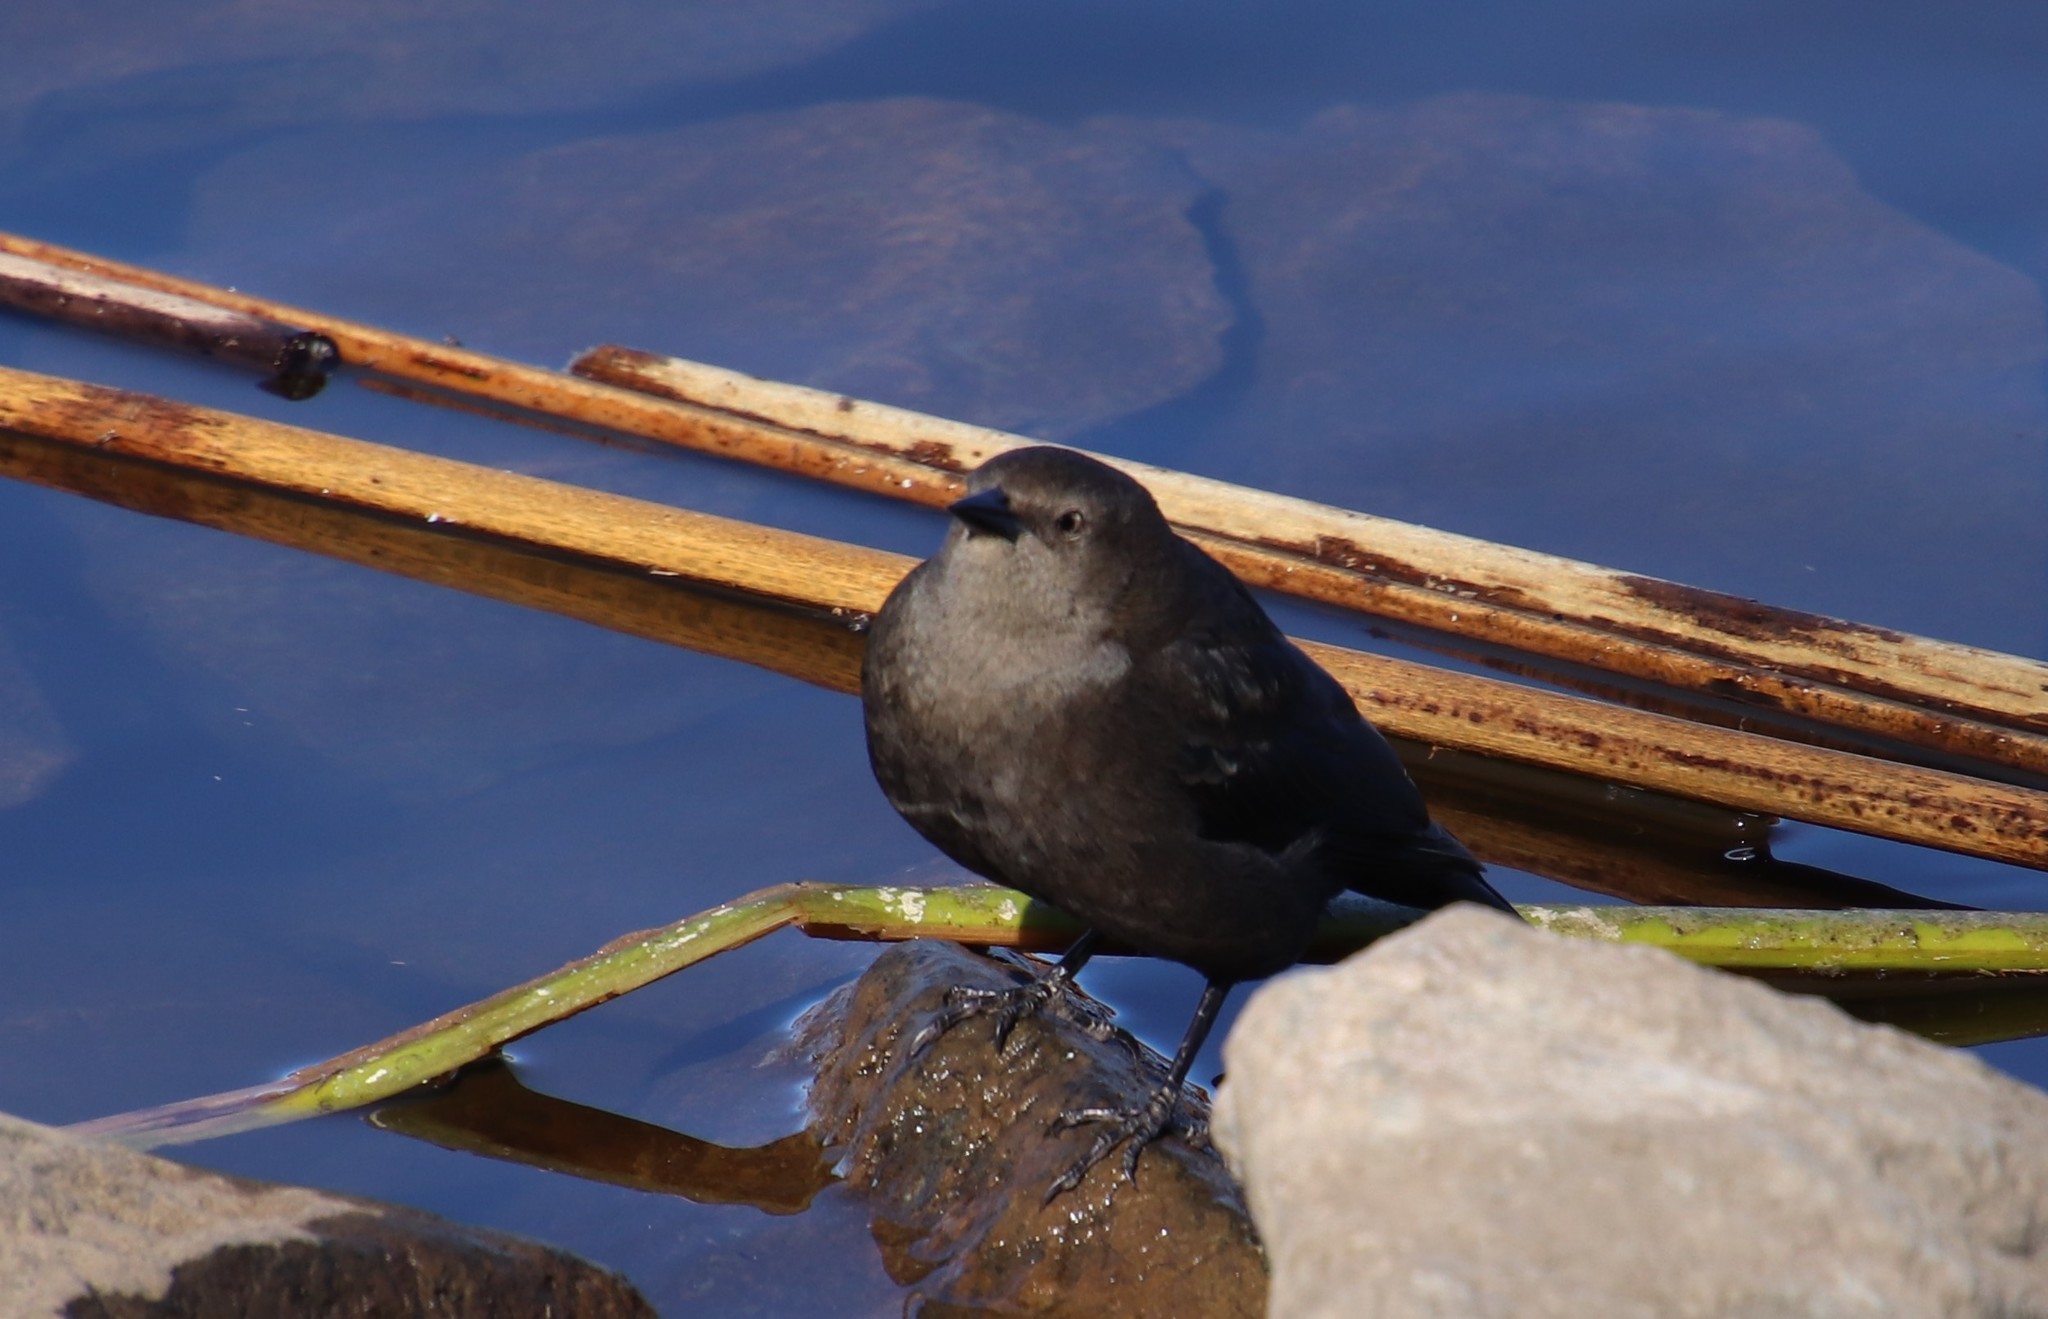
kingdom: Animalia
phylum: Chordata
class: Aves
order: Passeriformes
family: Icteridae
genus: Euphagus
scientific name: Euphagus cyanocephalus
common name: Brewer's blackbird
